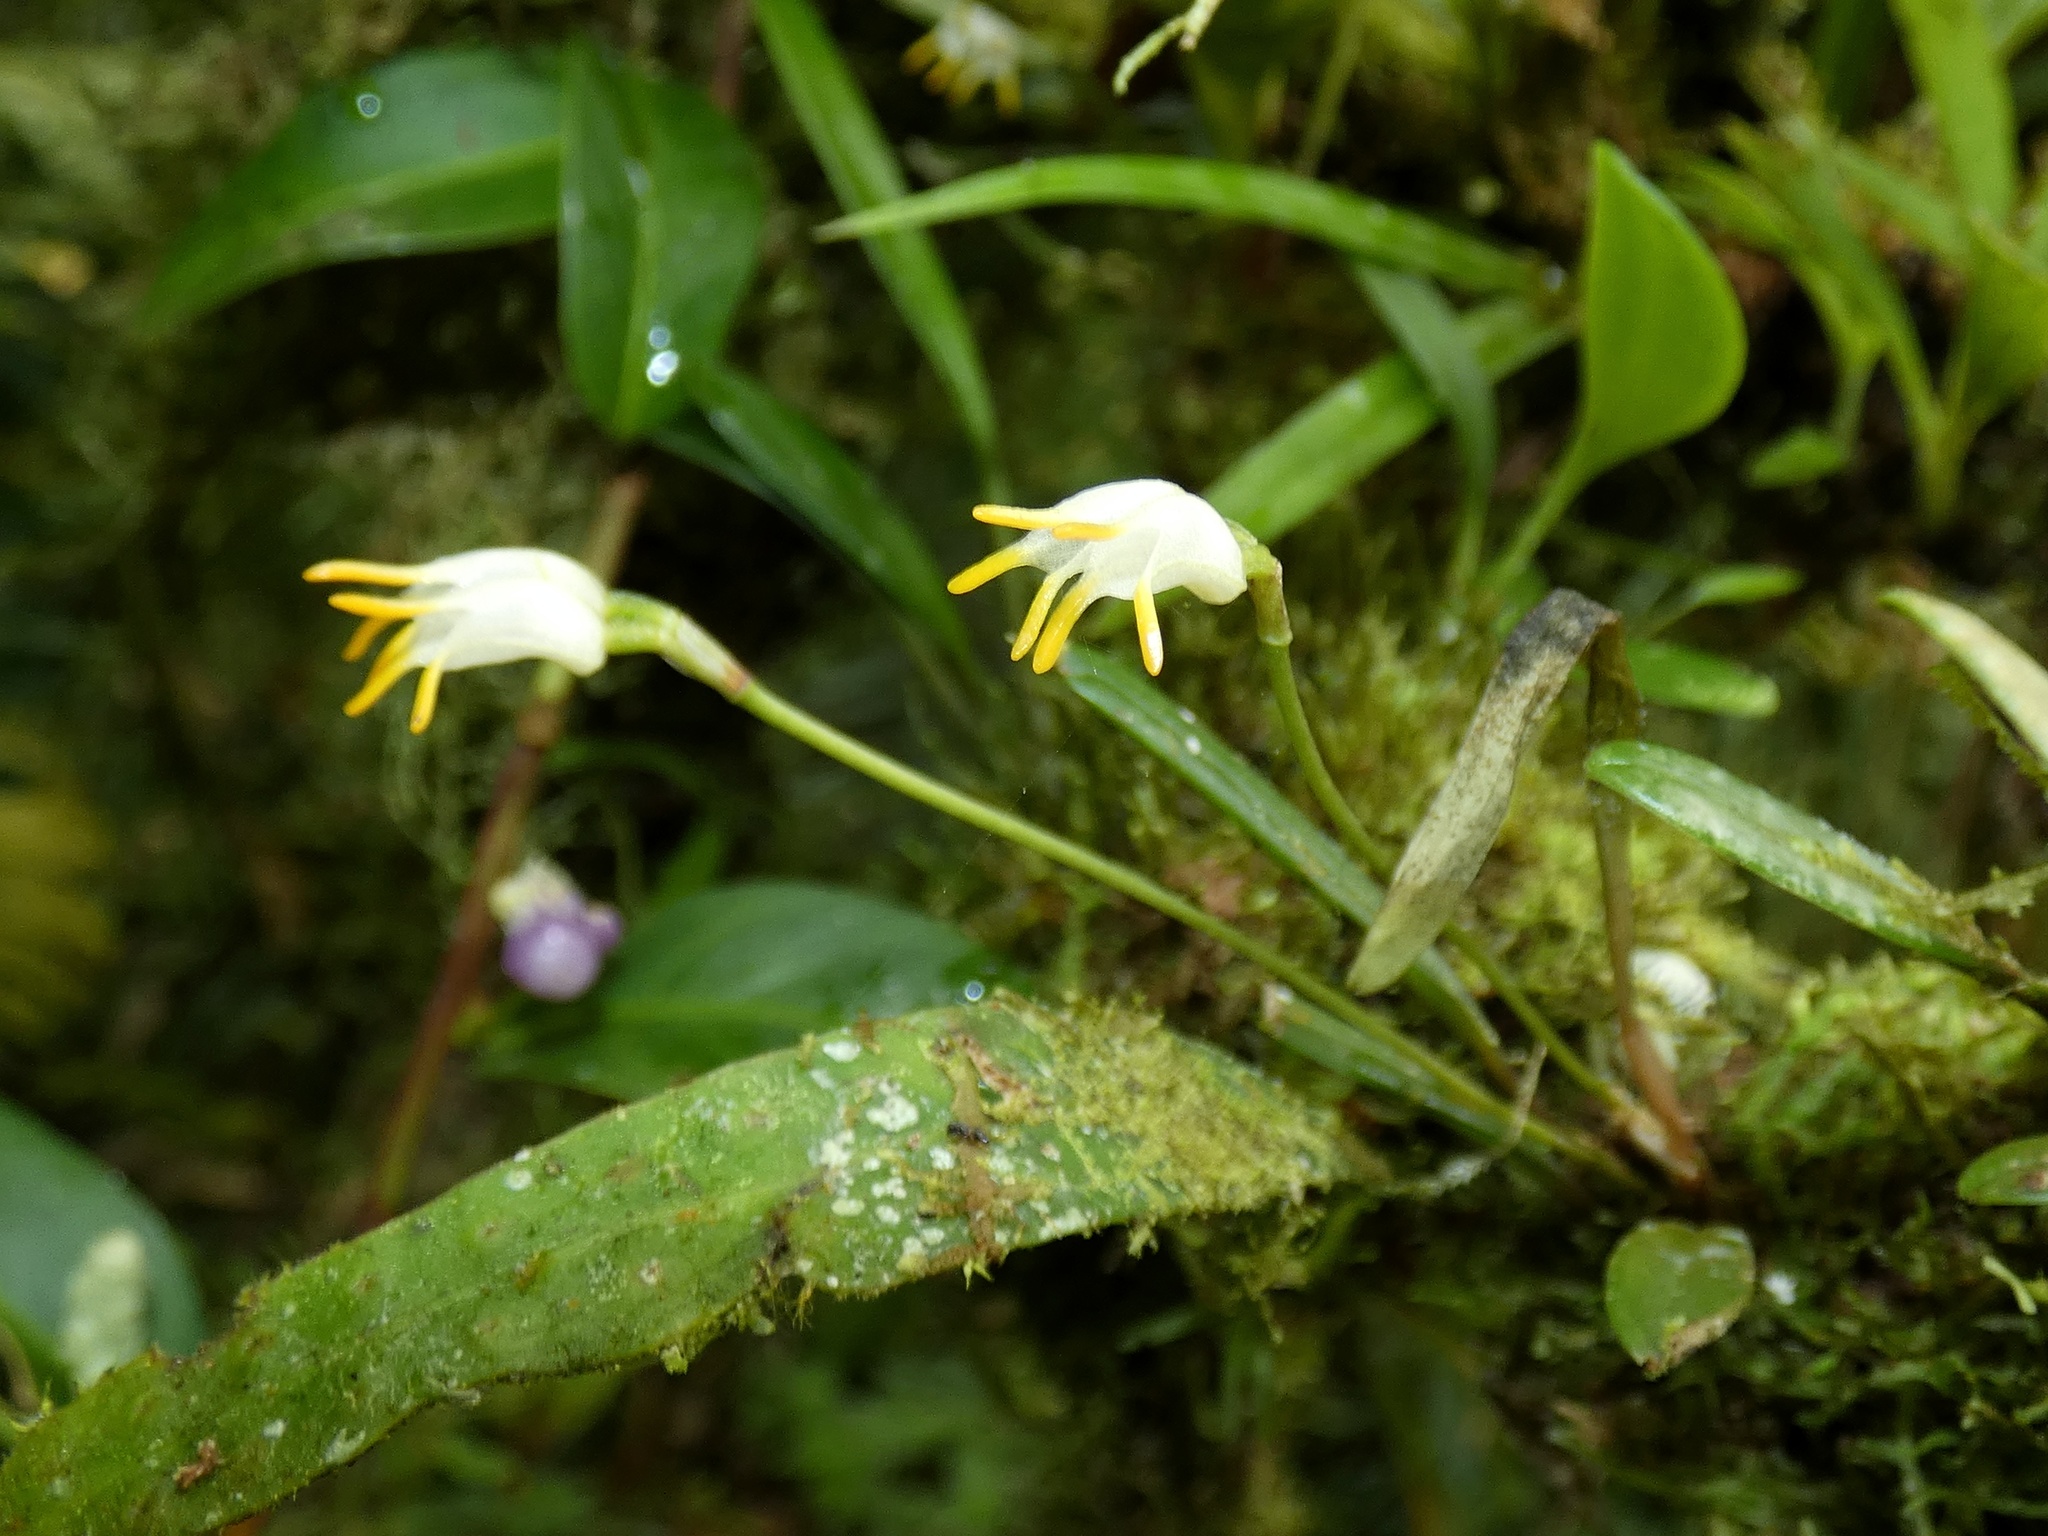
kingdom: Plantae
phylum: Tracheophyta
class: Liliopsida
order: Asparagales
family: Orchidaceae
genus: Masdevallia
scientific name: Masdevallia chontalensis
